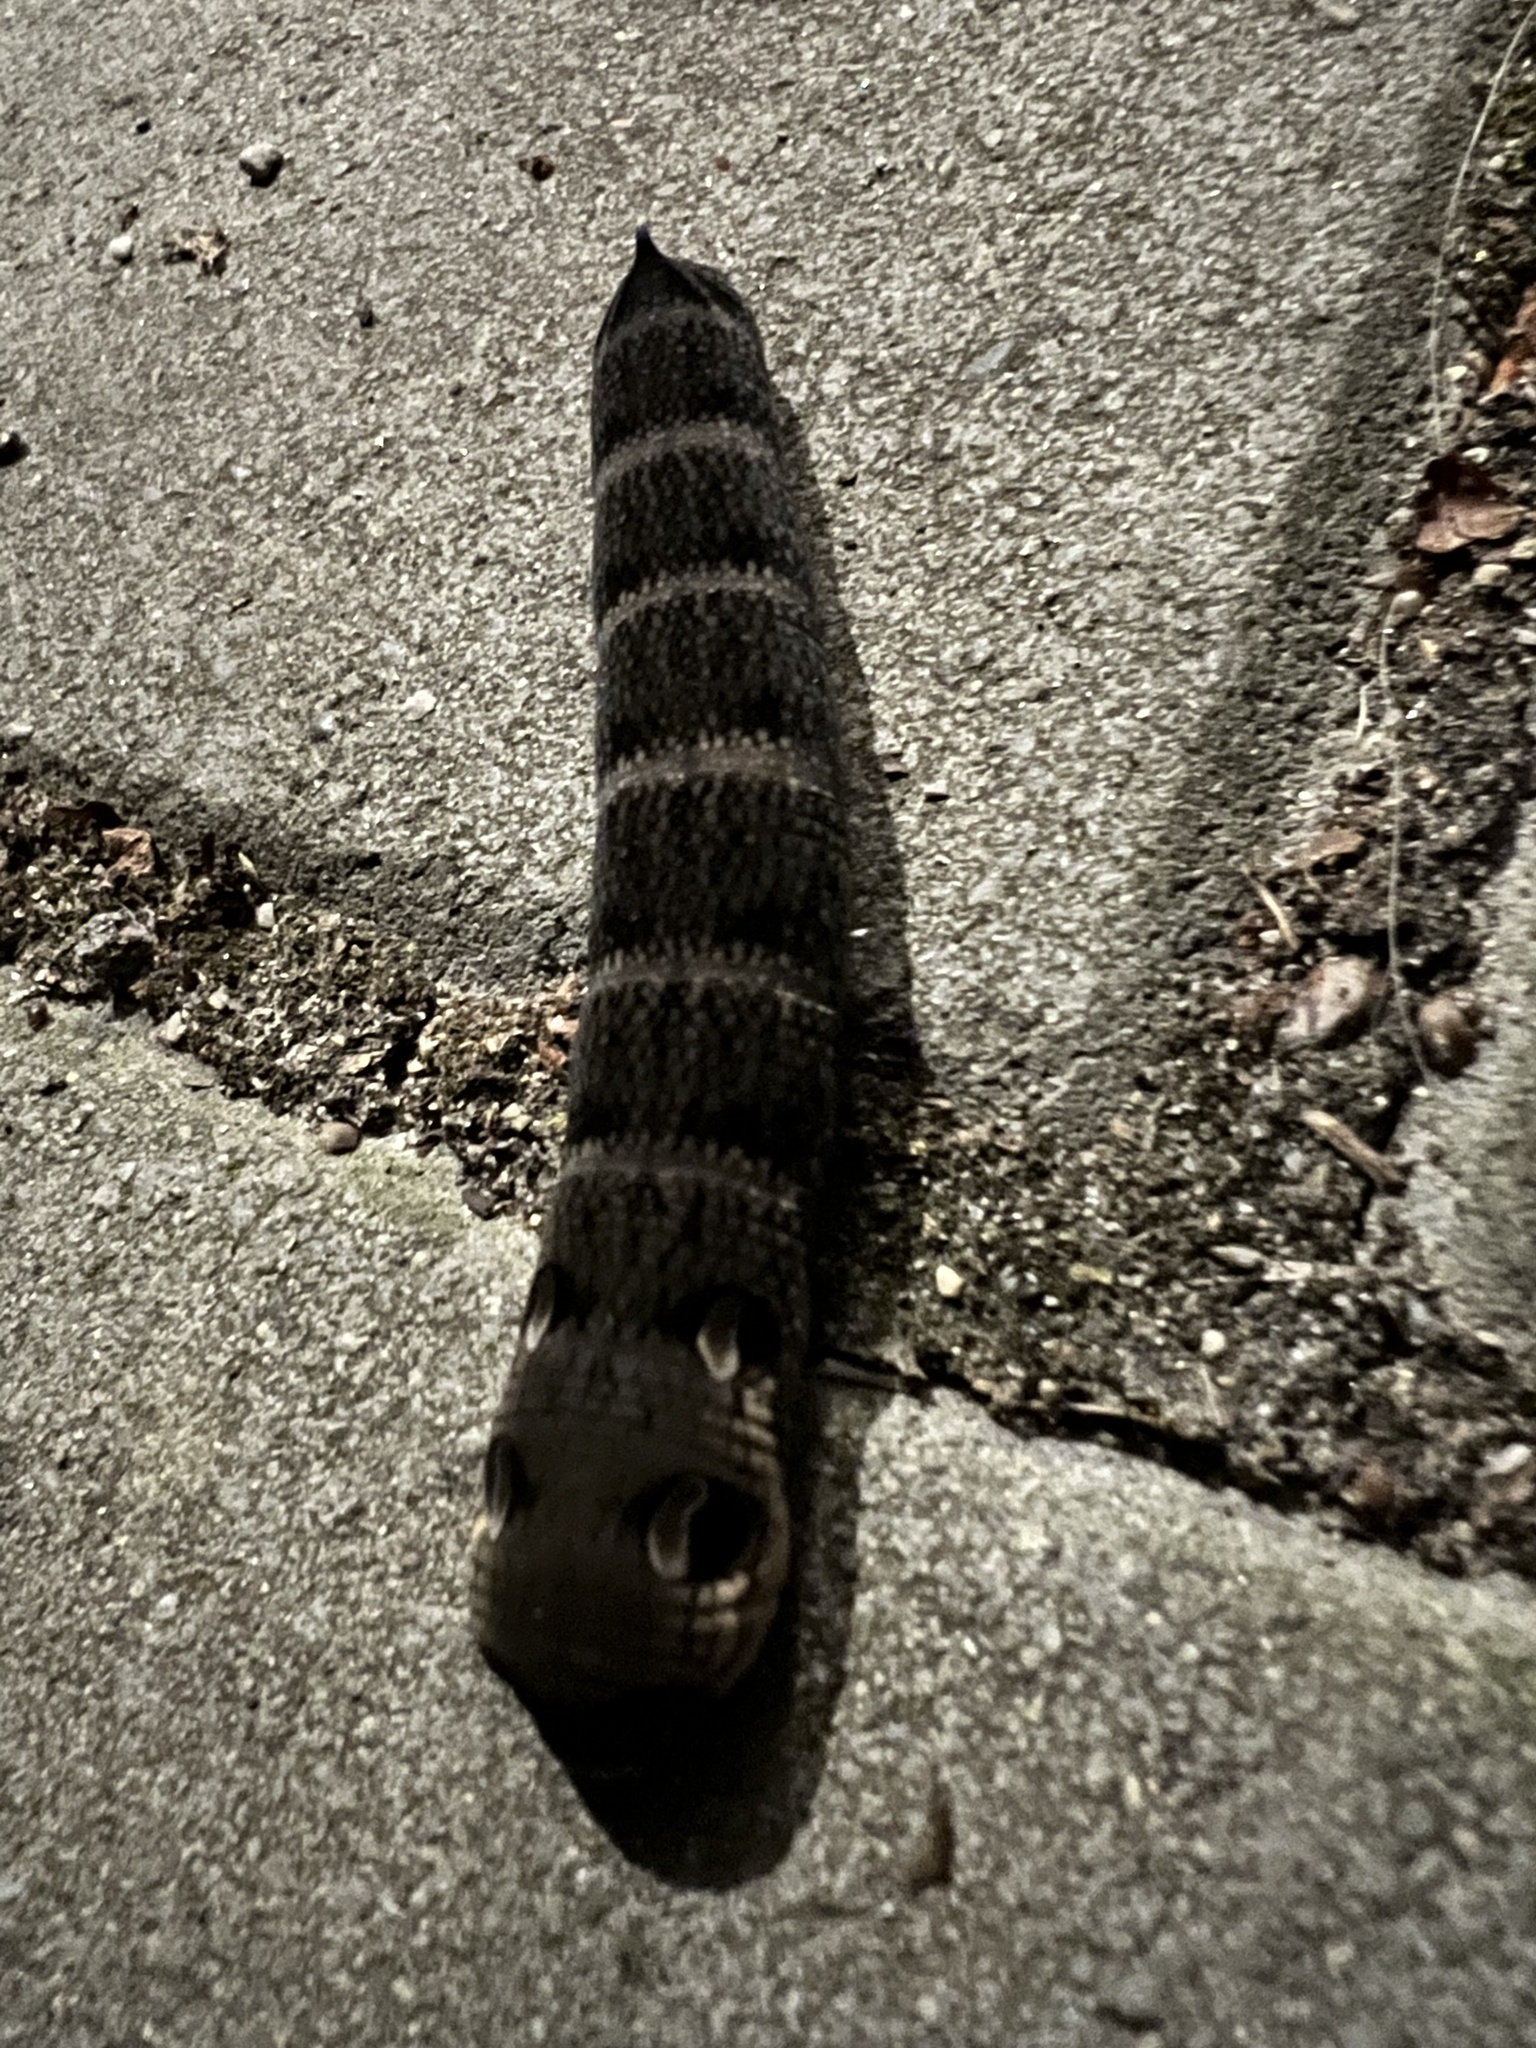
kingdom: Animalia
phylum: Arthropoda
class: Insecta
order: Lepidoptera
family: Sphingidae
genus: Deilephila
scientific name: Deilephila elpenor
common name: Elephant hawk-moth
